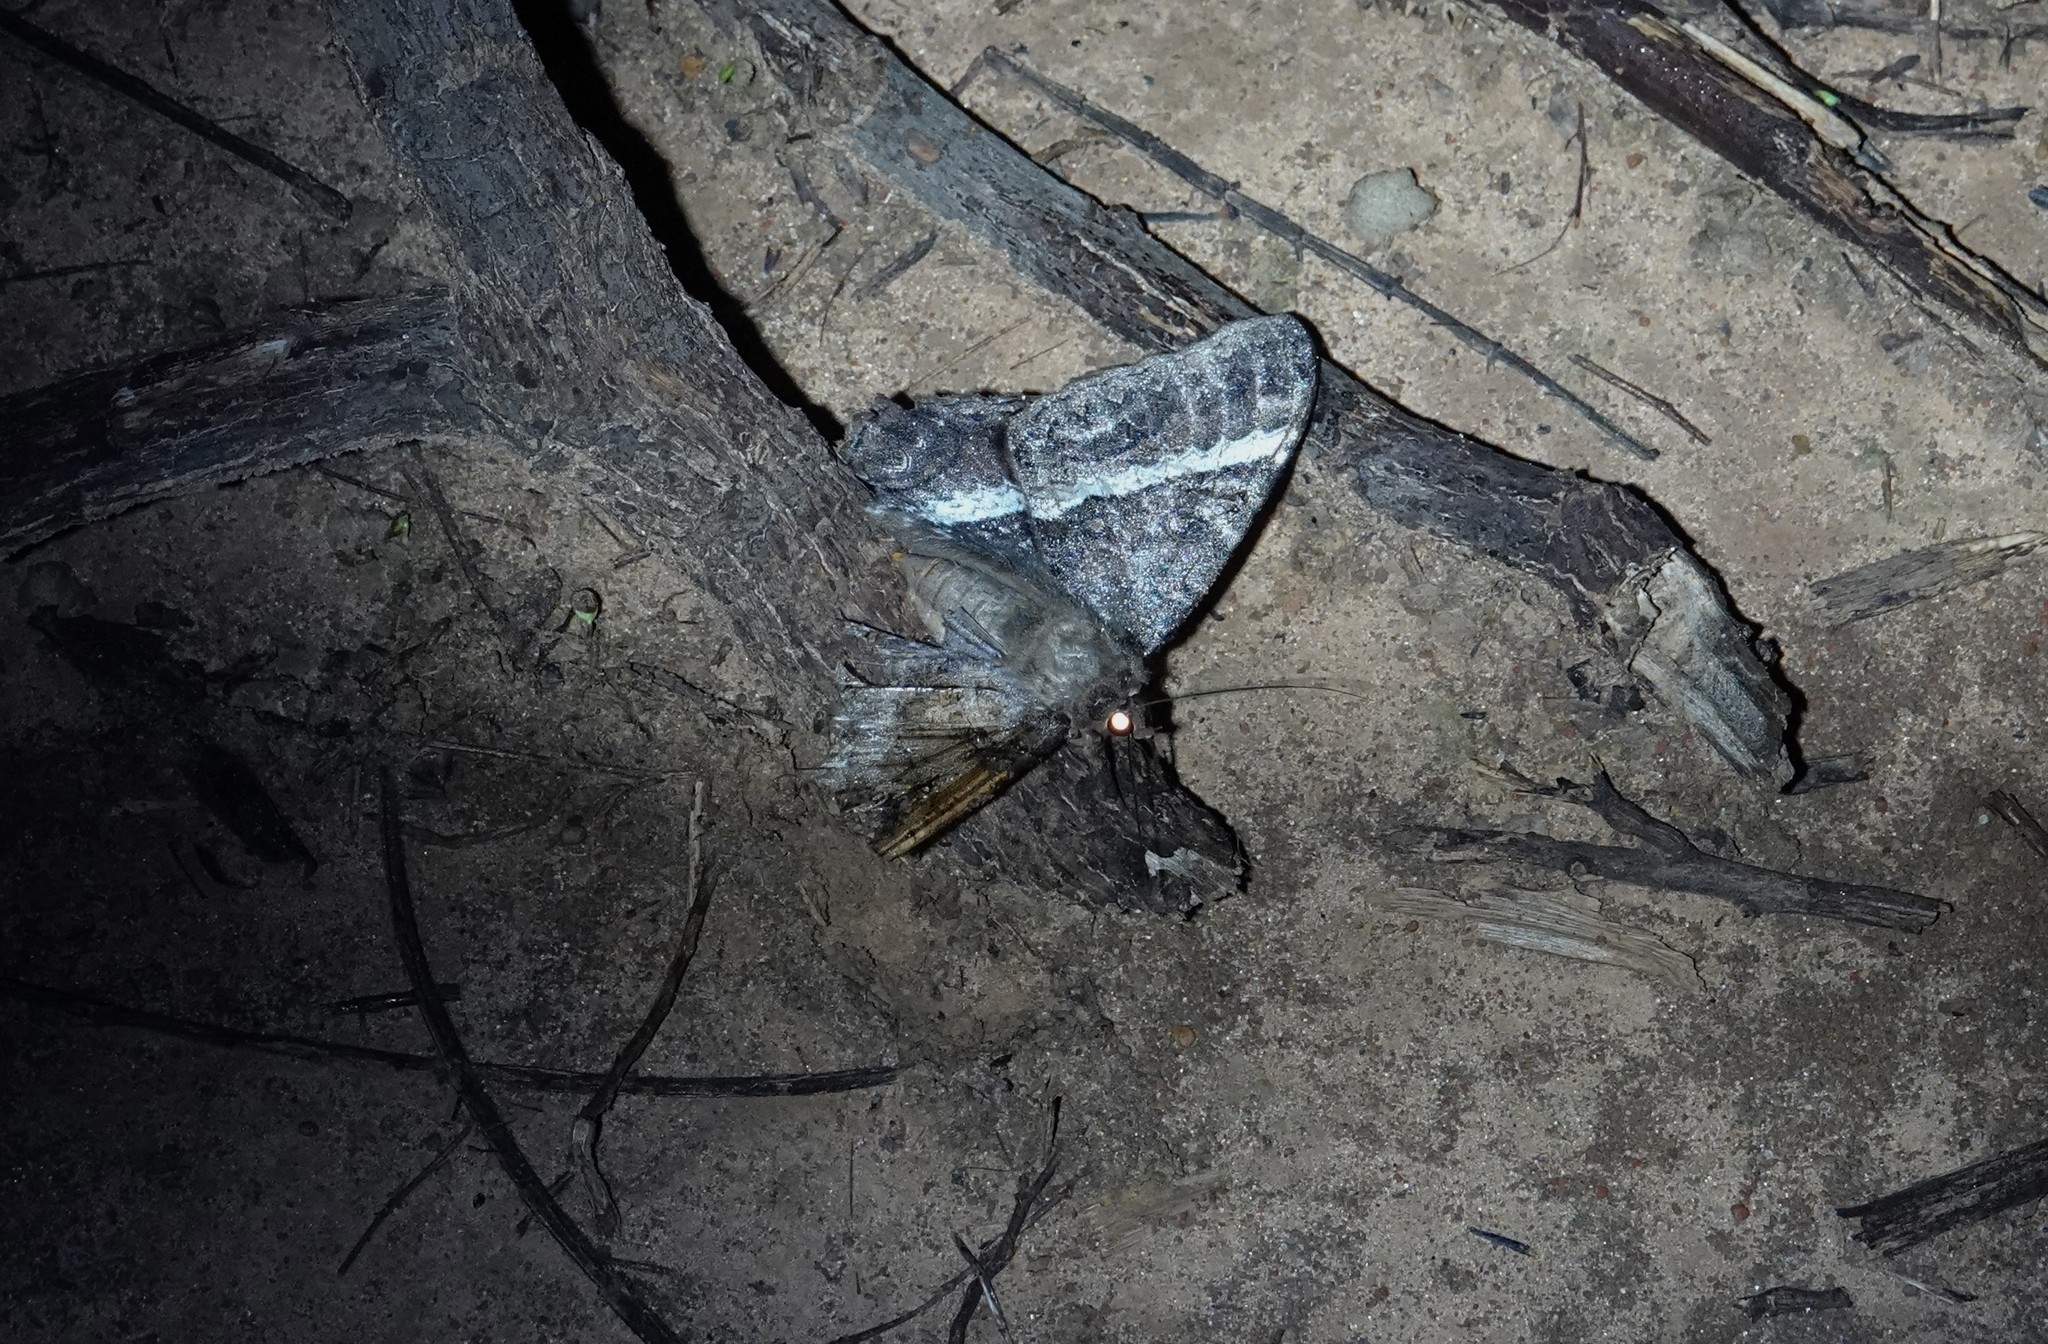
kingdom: Animalia
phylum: Arthropoda
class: Insecta
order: Lepidoptera
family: Erebidae
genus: Ascalapha
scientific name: Ascalapha odorata
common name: Black witch
